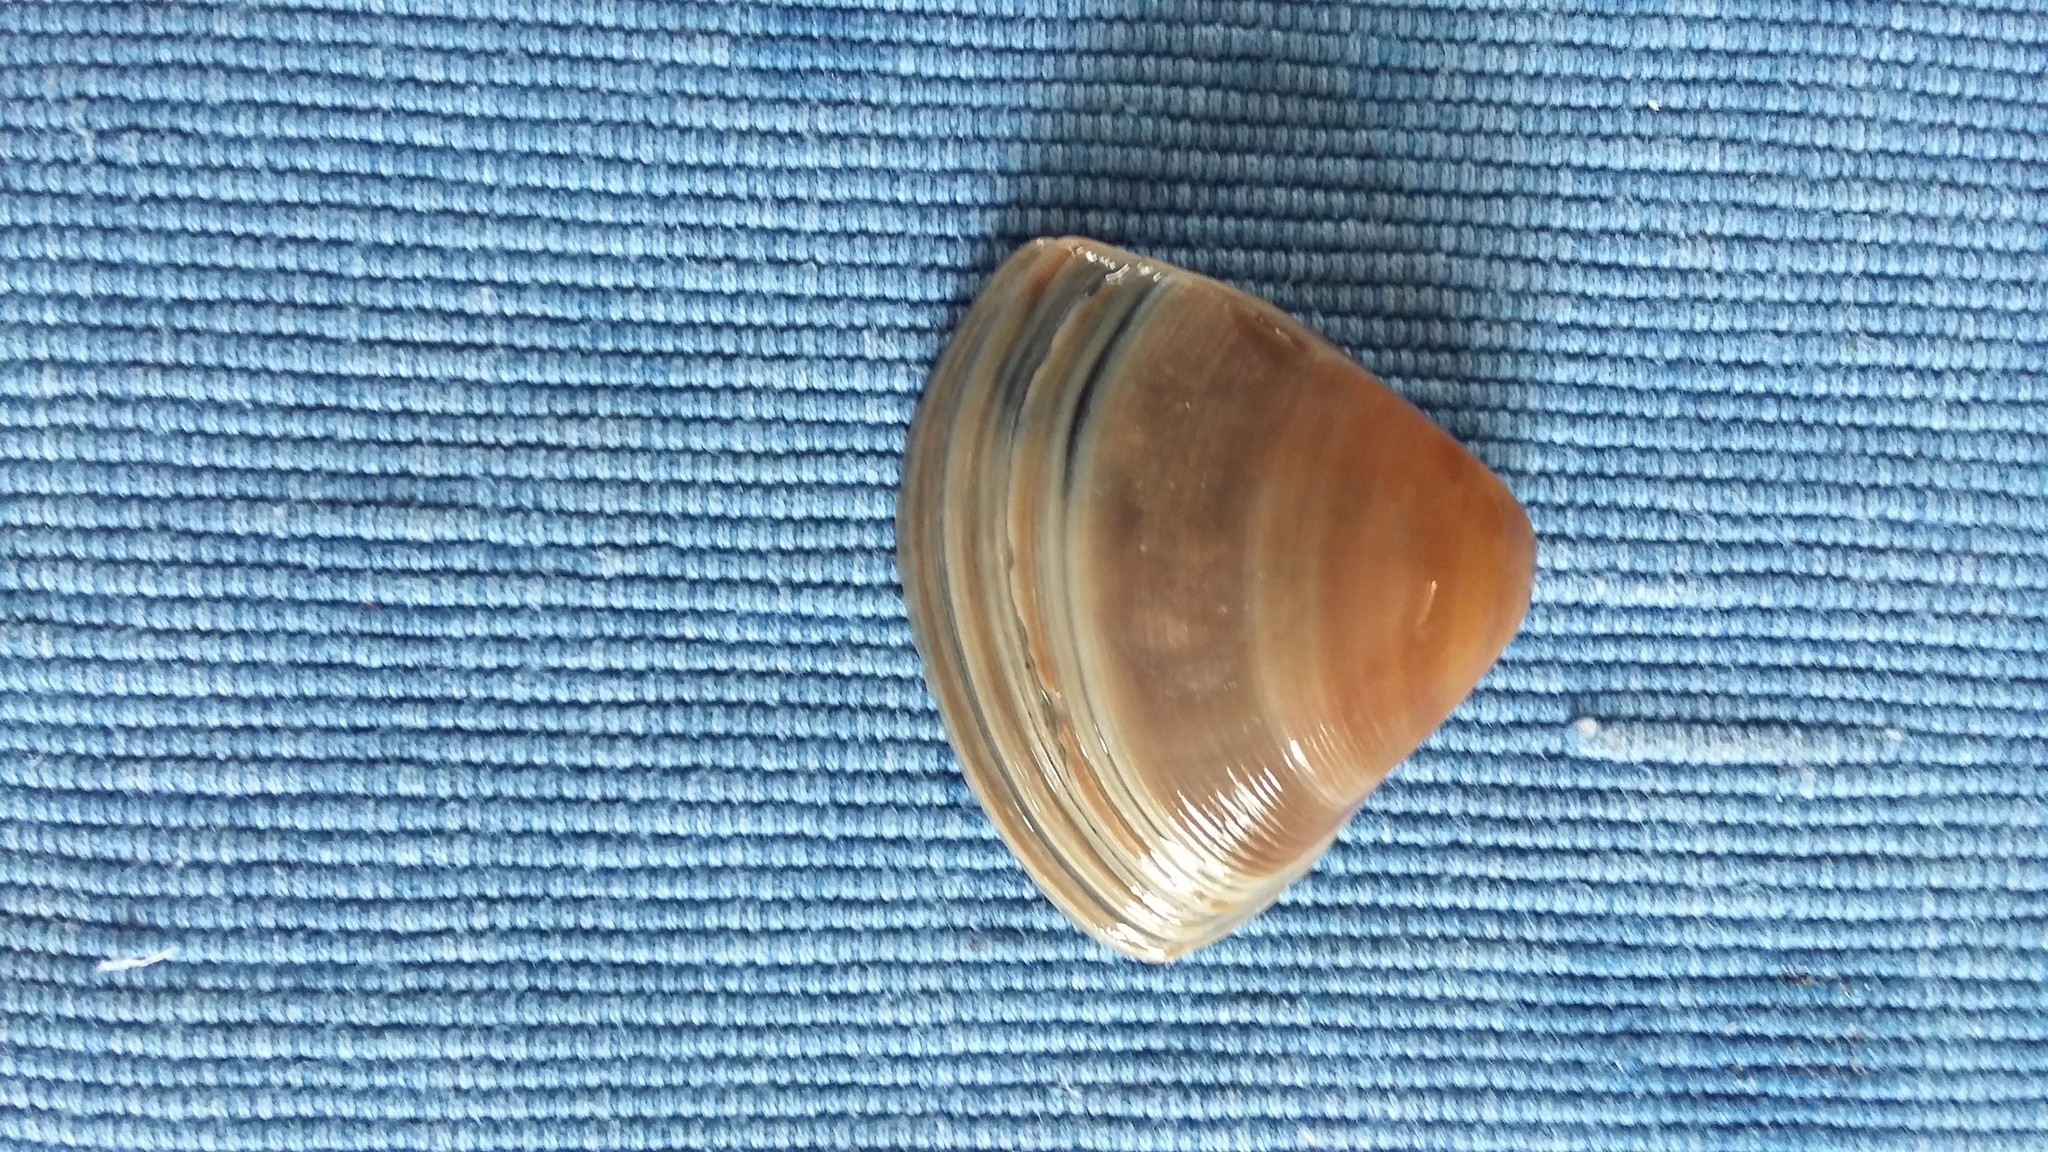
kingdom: Animalia
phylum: Mollusca
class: Bivalvia
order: Venerida
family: Mactridae
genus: Crassula
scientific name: Crassula aequilatera
